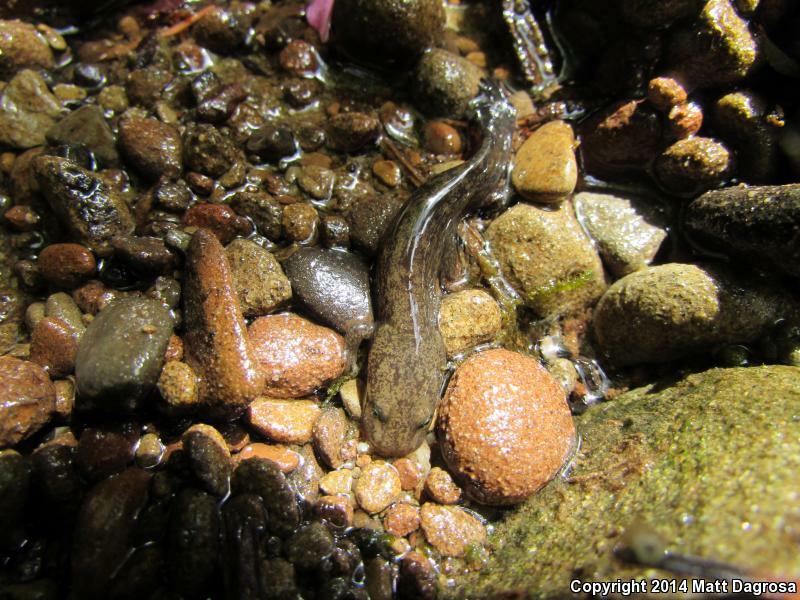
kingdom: Animalia
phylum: Chordata
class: Amphibia
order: Caudata
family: Ambystomatidae
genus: Dicamptodon
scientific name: Dicamptodon tenebrosus
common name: Coastal giant salamander
